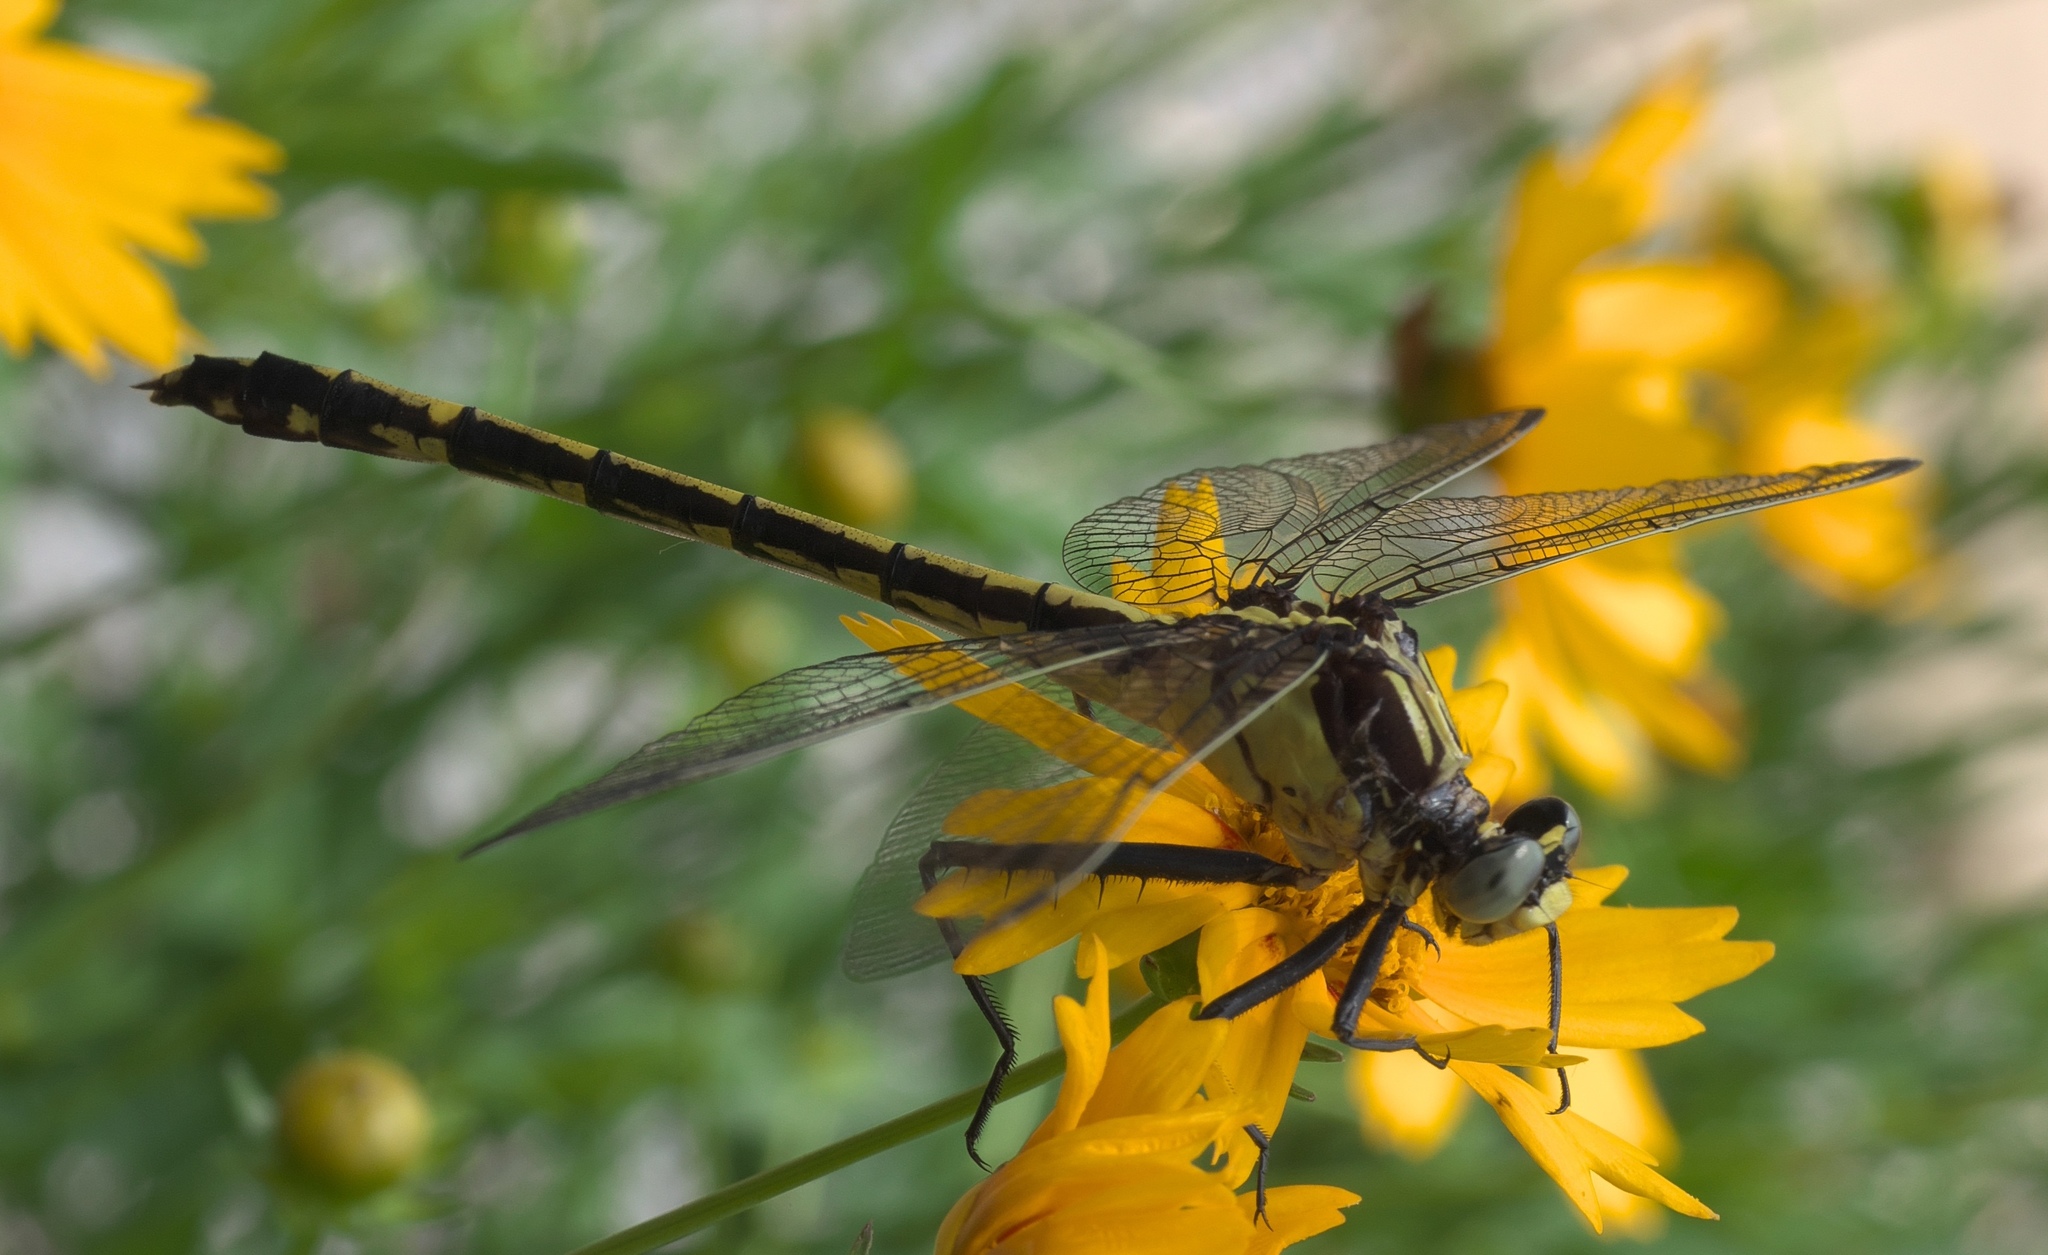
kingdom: Animalia
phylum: Arthropoda
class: Insecta
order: Odonata
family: Gomphidae
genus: Dromogomphus
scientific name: Dromogomphus spinosus
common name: Black-shouldered spinyleg
